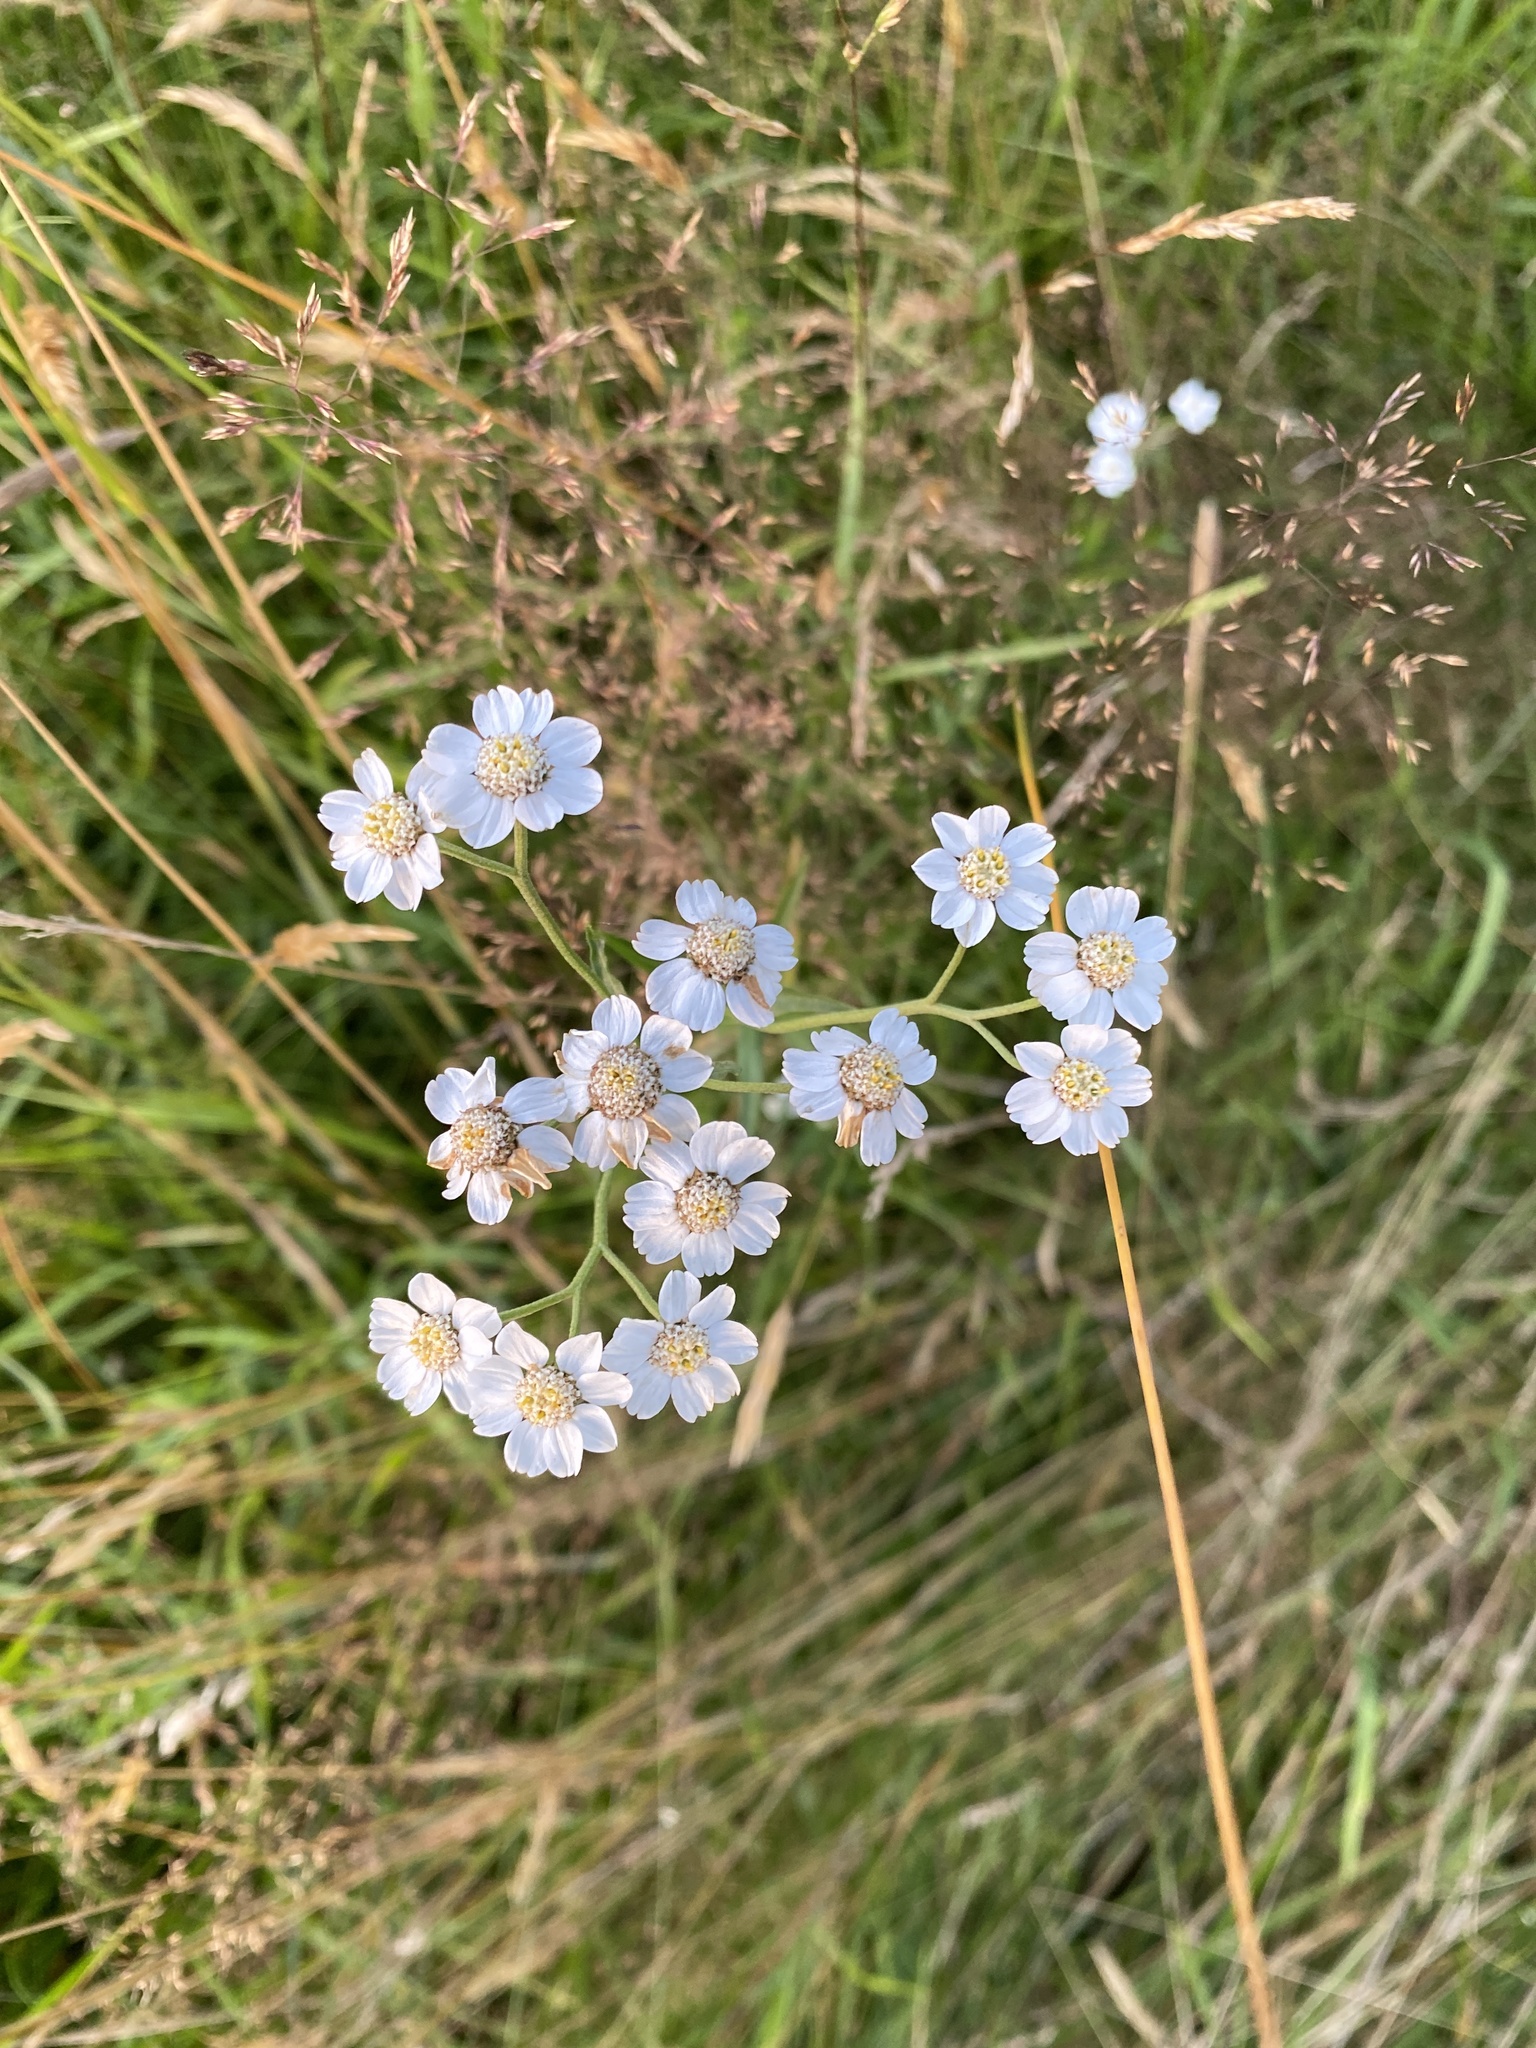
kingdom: Plantae
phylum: Tracheophyta
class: Magnoliopsida
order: Asterales
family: Asteraceae
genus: Achillea
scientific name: Achillea ptarmica
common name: Sneezeweed
